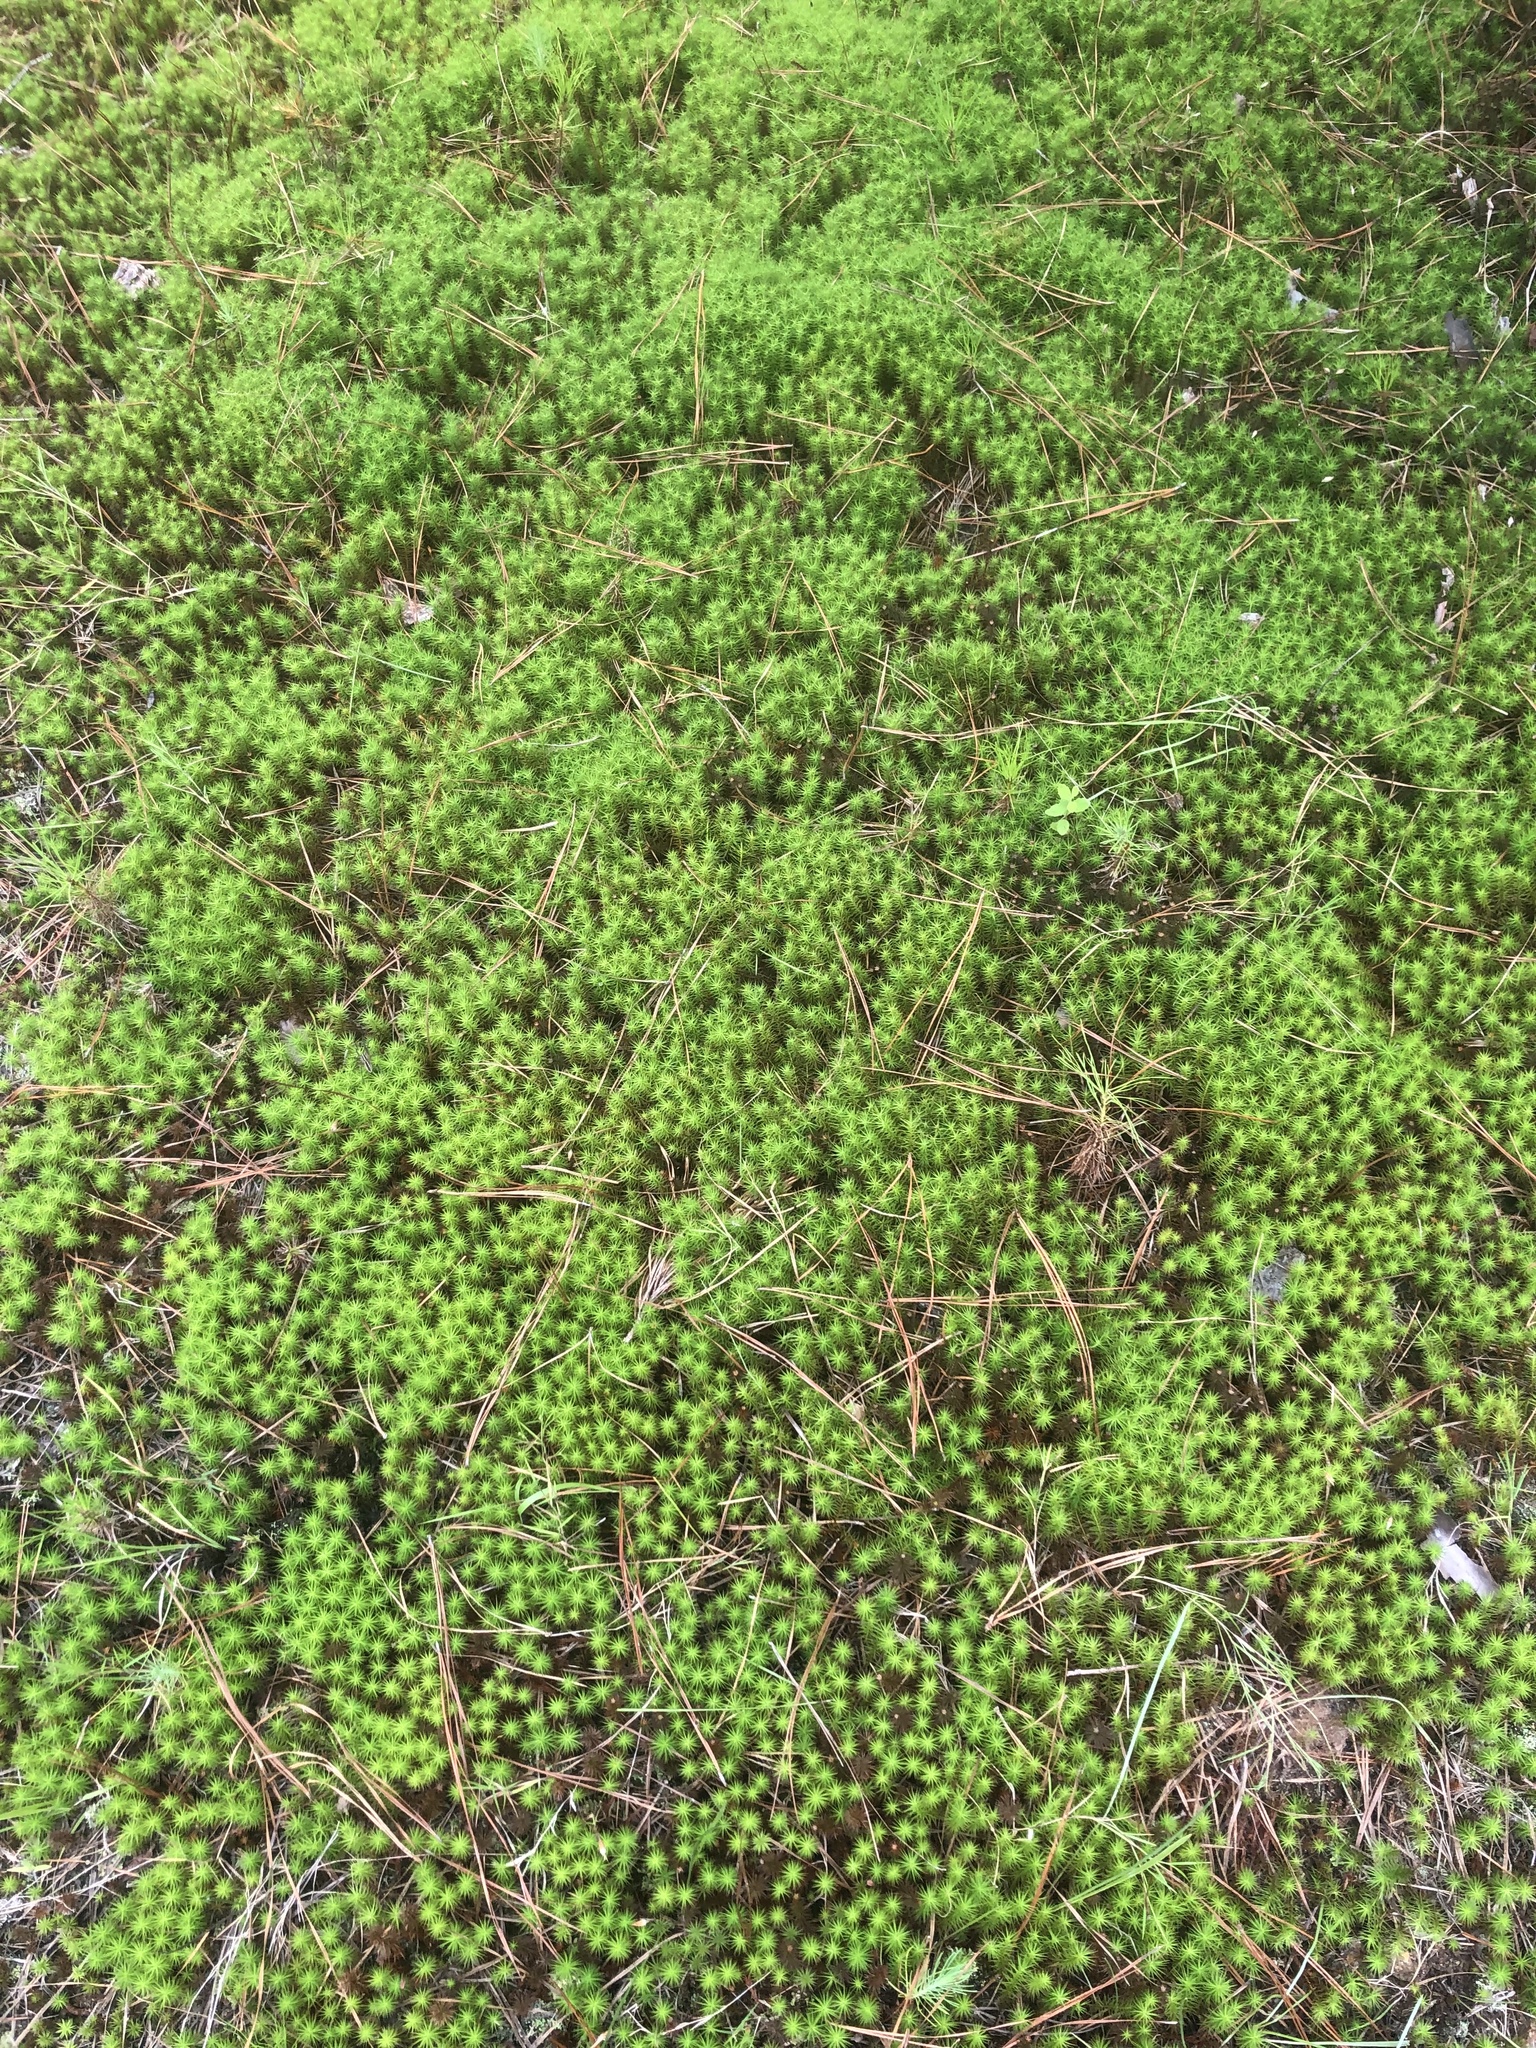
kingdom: Plantae
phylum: Bryophyta
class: Polytrichopsida
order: Polytrichales
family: Polytrichaceae
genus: Polytrichum
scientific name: Polytrichum commune
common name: Common haircap
